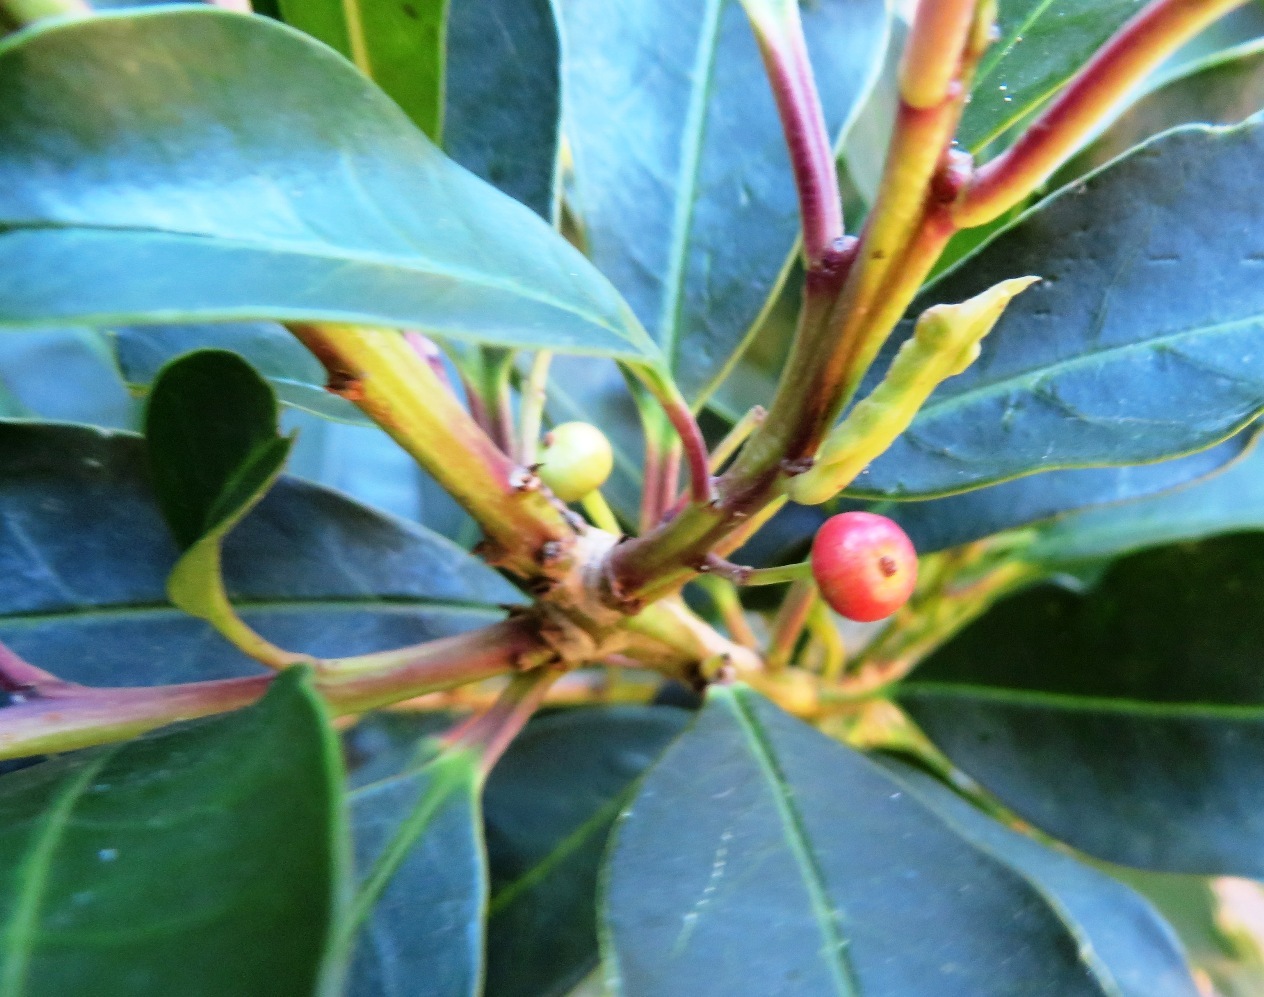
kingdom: Plantae
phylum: Tracheophyta
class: Magnoliopsida
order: Aquifoliales
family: Aquifoliaceae
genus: Ilex
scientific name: Ilex mitis
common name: African holly
